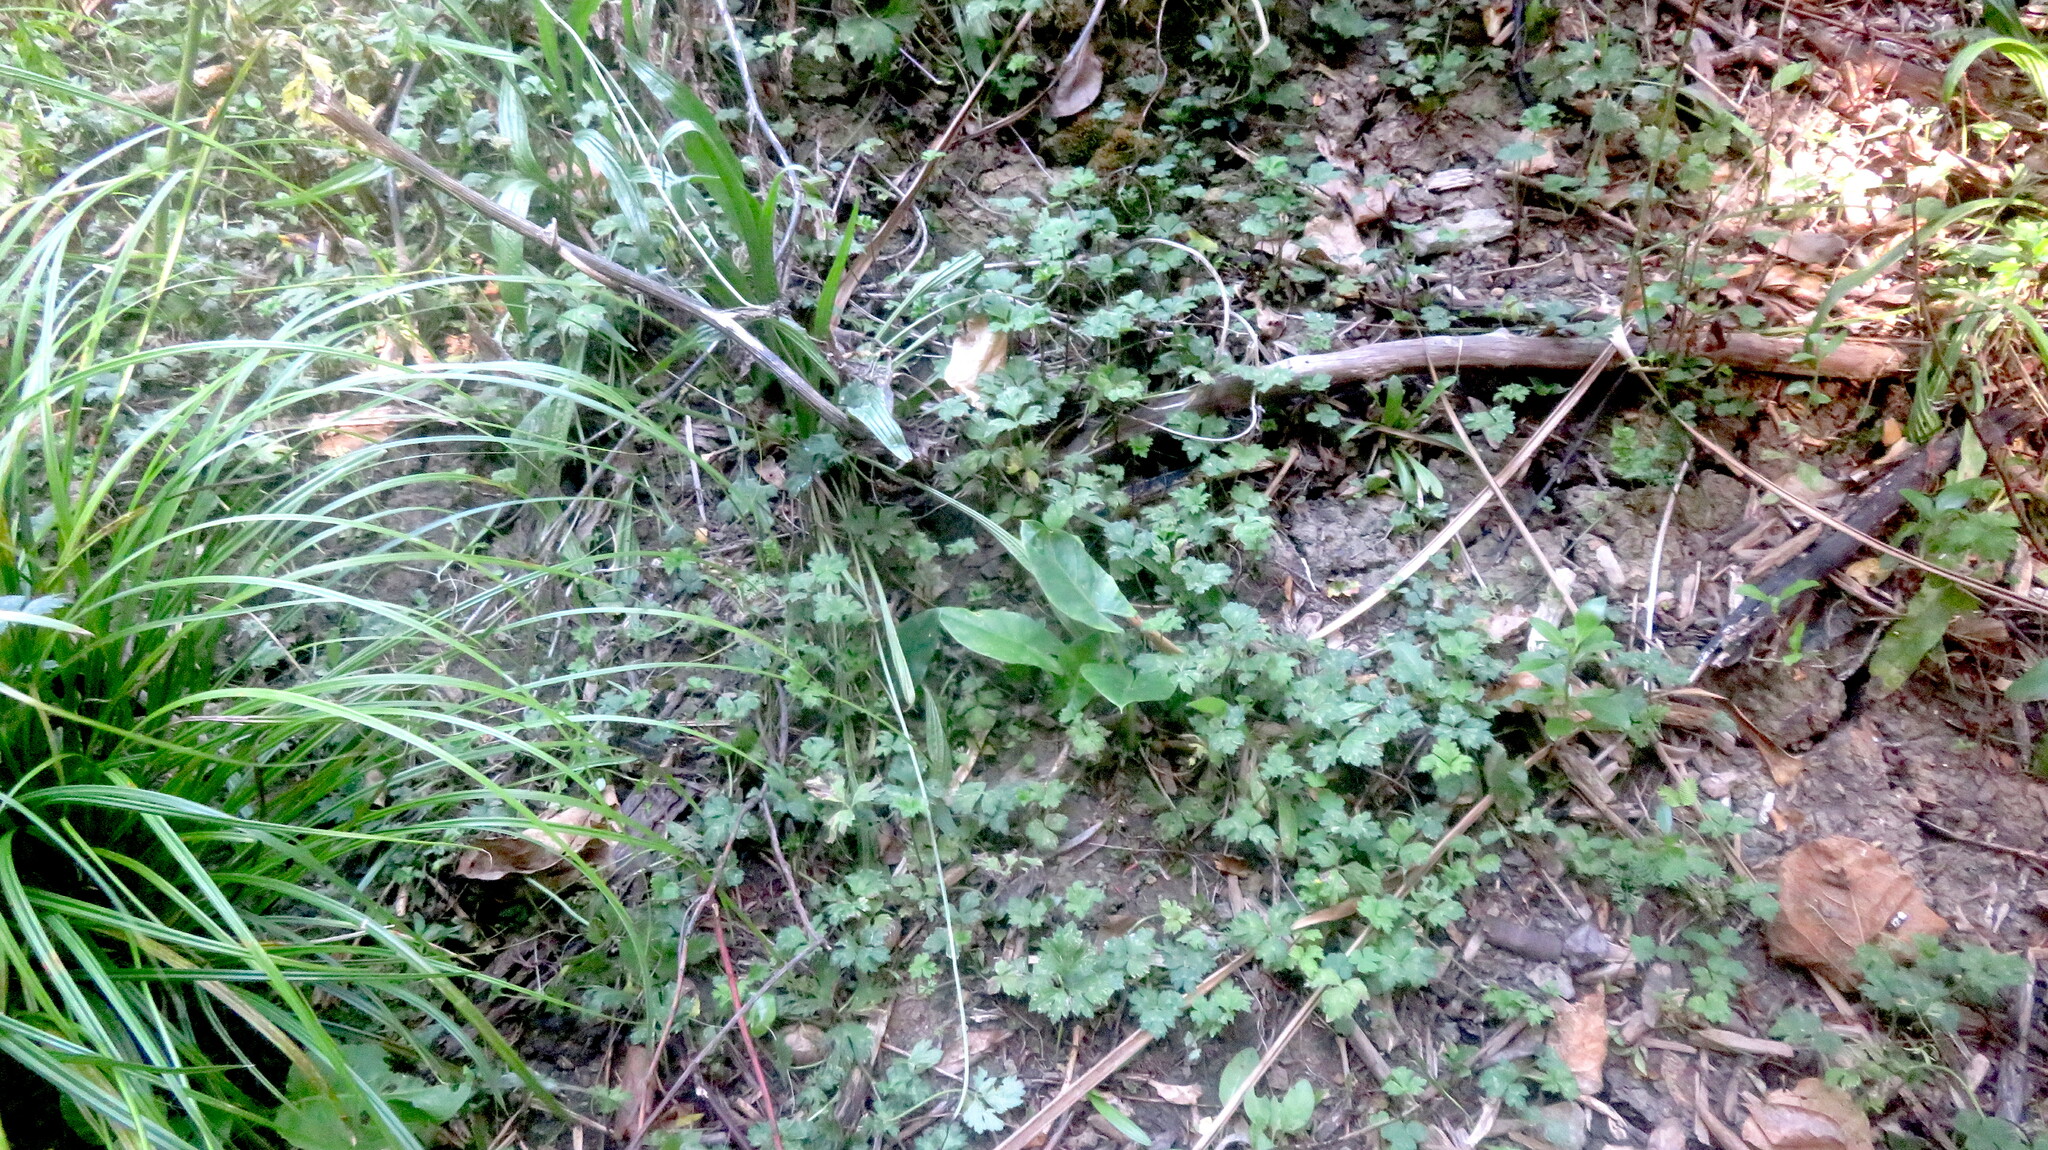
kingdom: Plantae
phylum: Tracheophyta
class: Liliopsida
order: Alismatales
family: Araceae
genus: Alocasia
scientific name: Alocasia brisbanensis
